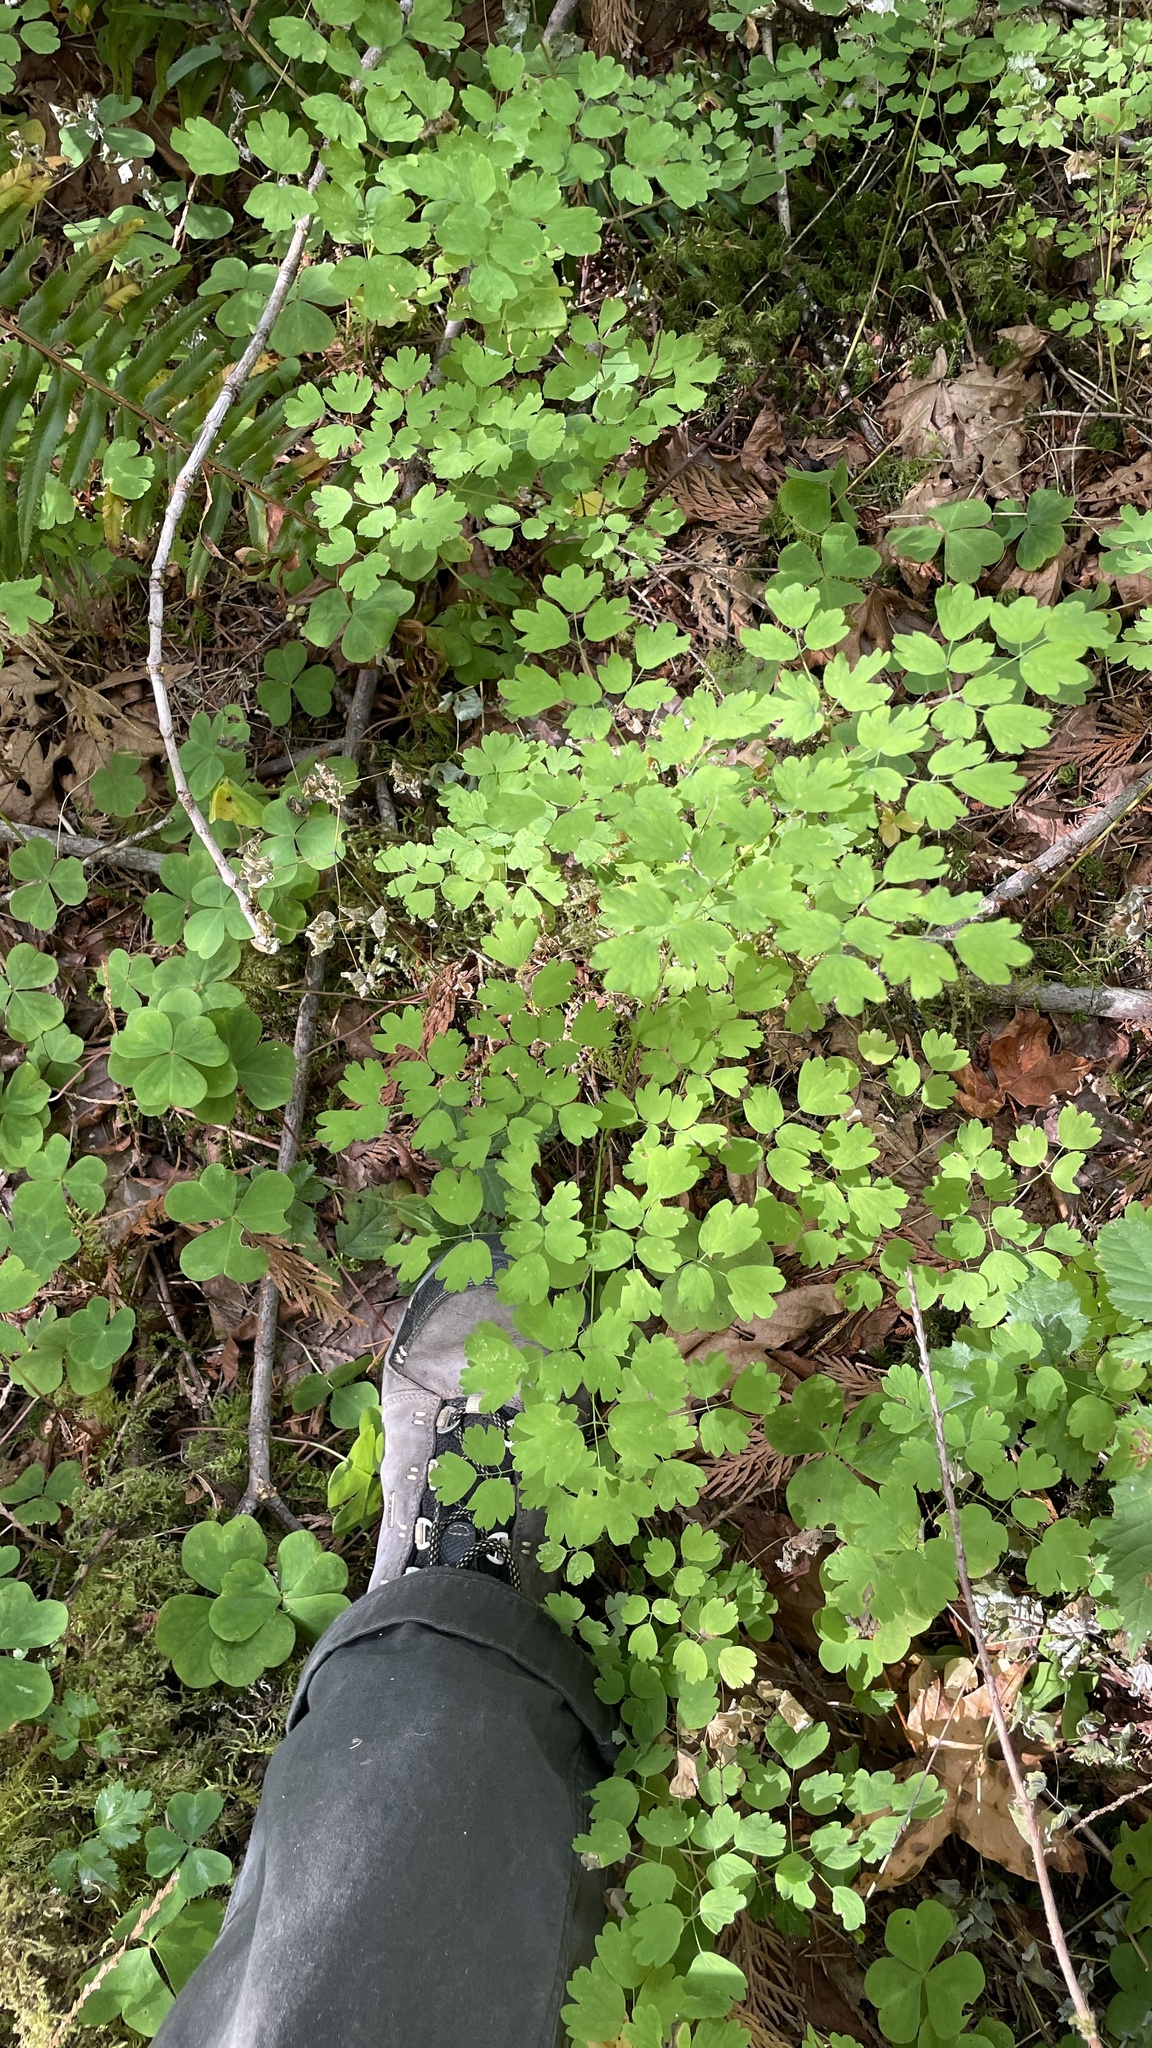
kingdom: Plantae
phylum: Tracheophyta
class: Magnoliopsida
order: Ranunculales
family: Ranunculaceae
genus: Thalictrum
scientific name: Thalictrum occidentale
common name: Western meadow-rue
